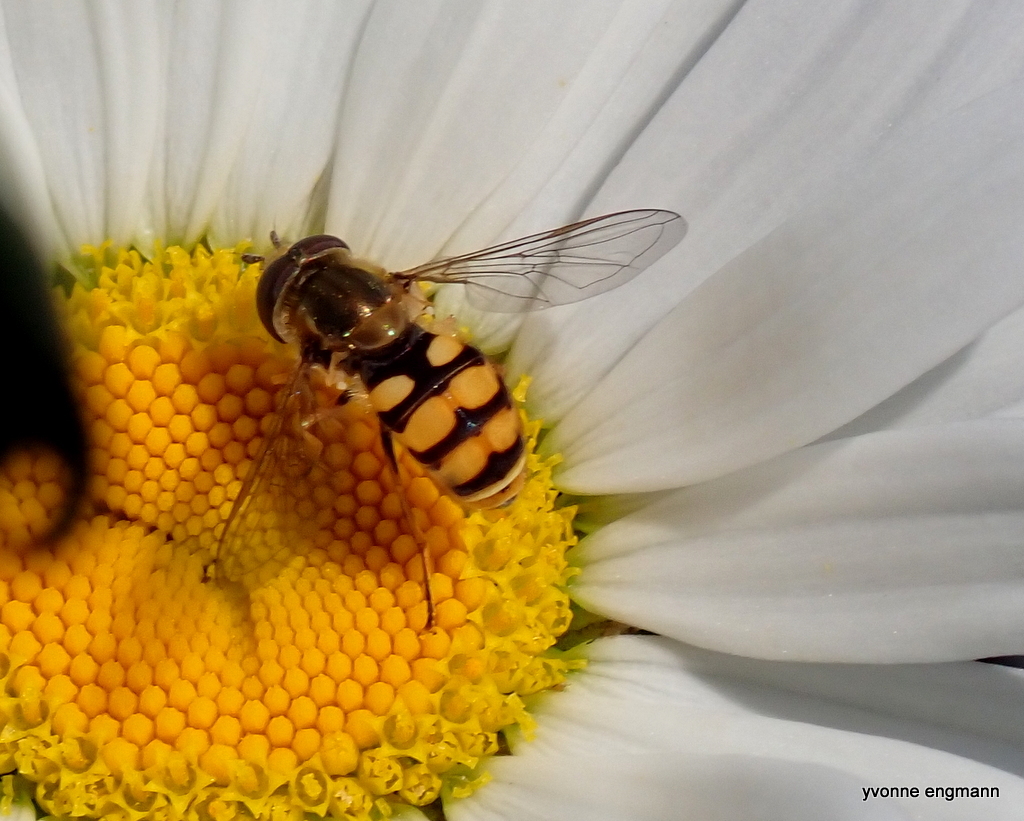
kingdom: Animalia
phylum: Arthropoda
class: Insecta
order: Diptera
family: Syrphidae
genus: Eupeodes
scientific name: Eupeodes corollae
